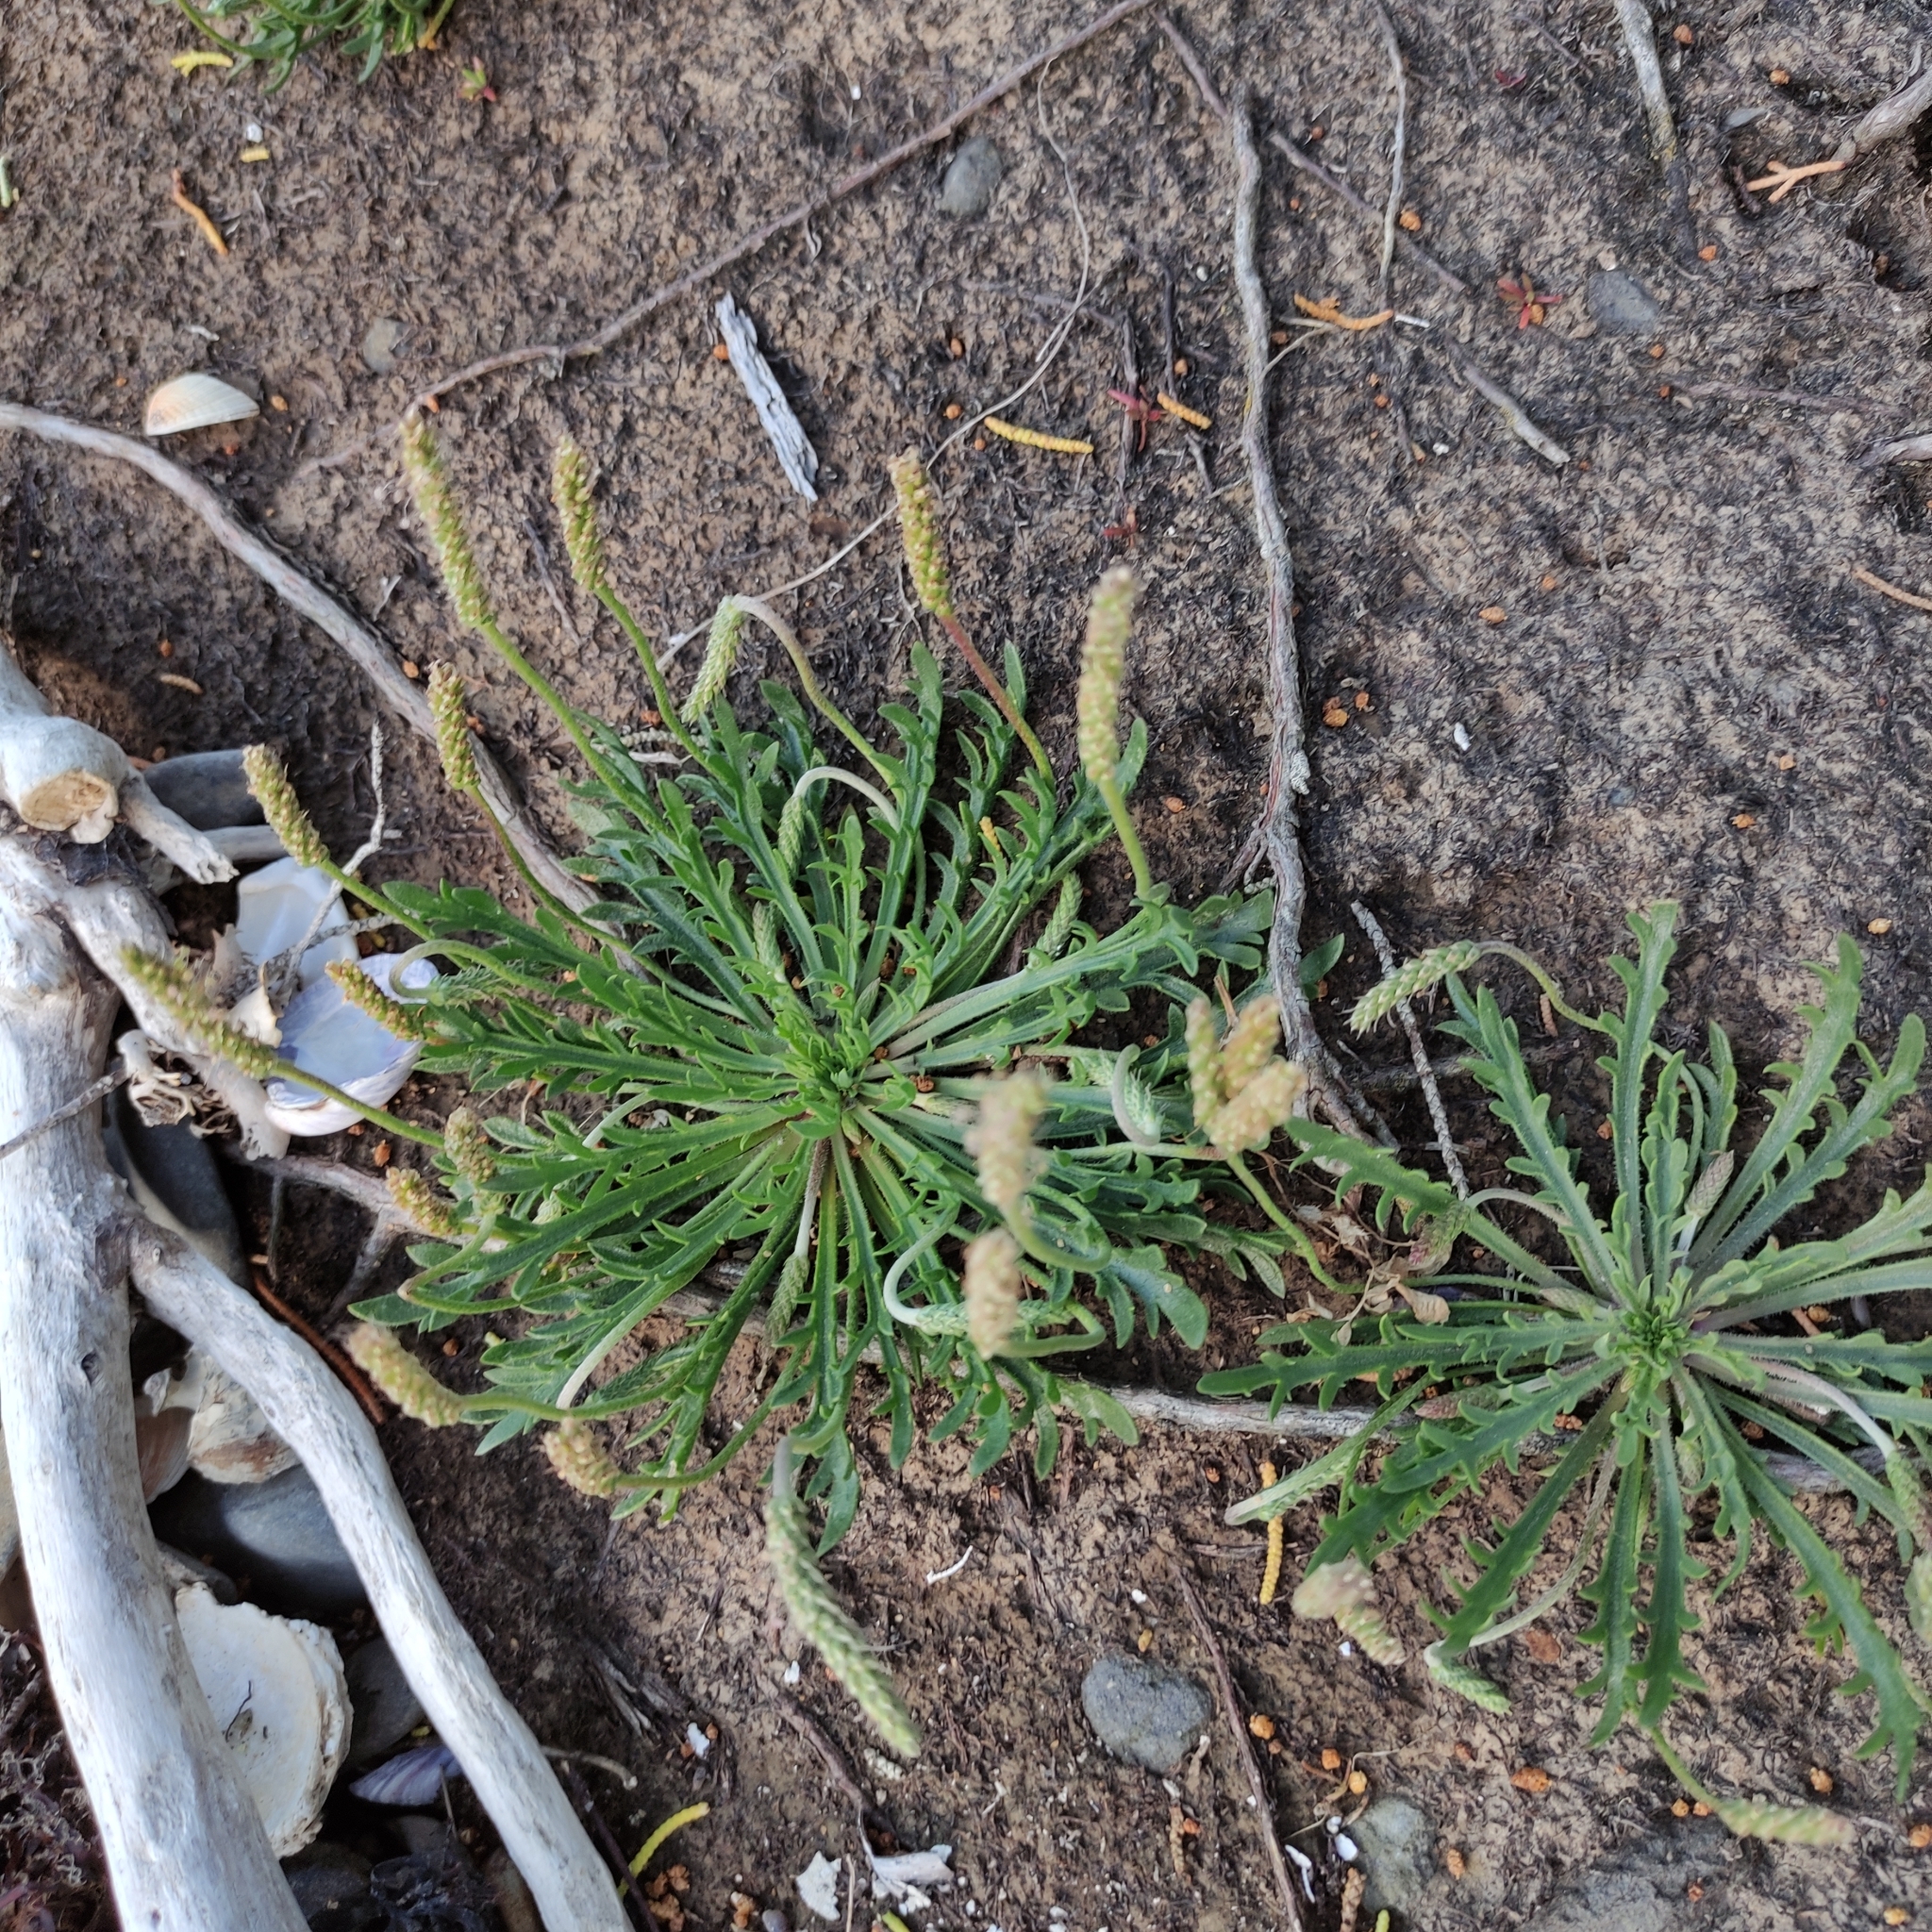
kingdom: Plantae
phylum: Tracheophyta
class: Magnoliopsida
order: Lamiales
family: Plantaginaceae
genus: Plantago
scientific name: Plantago coronopus
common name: Buck's-horn plantain
